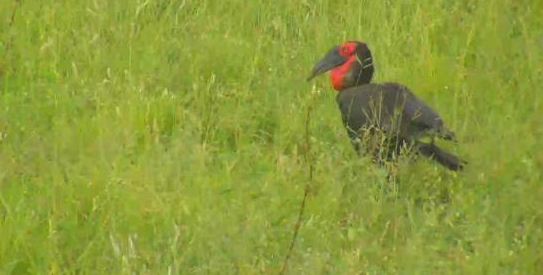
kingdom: Animalia
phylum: Chordata
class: Aves
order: Bucerotiformes
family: Bucorvidae
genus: Bucorvus
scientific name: Bucorvus leadbeateri
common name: Southern ground-hornbill
